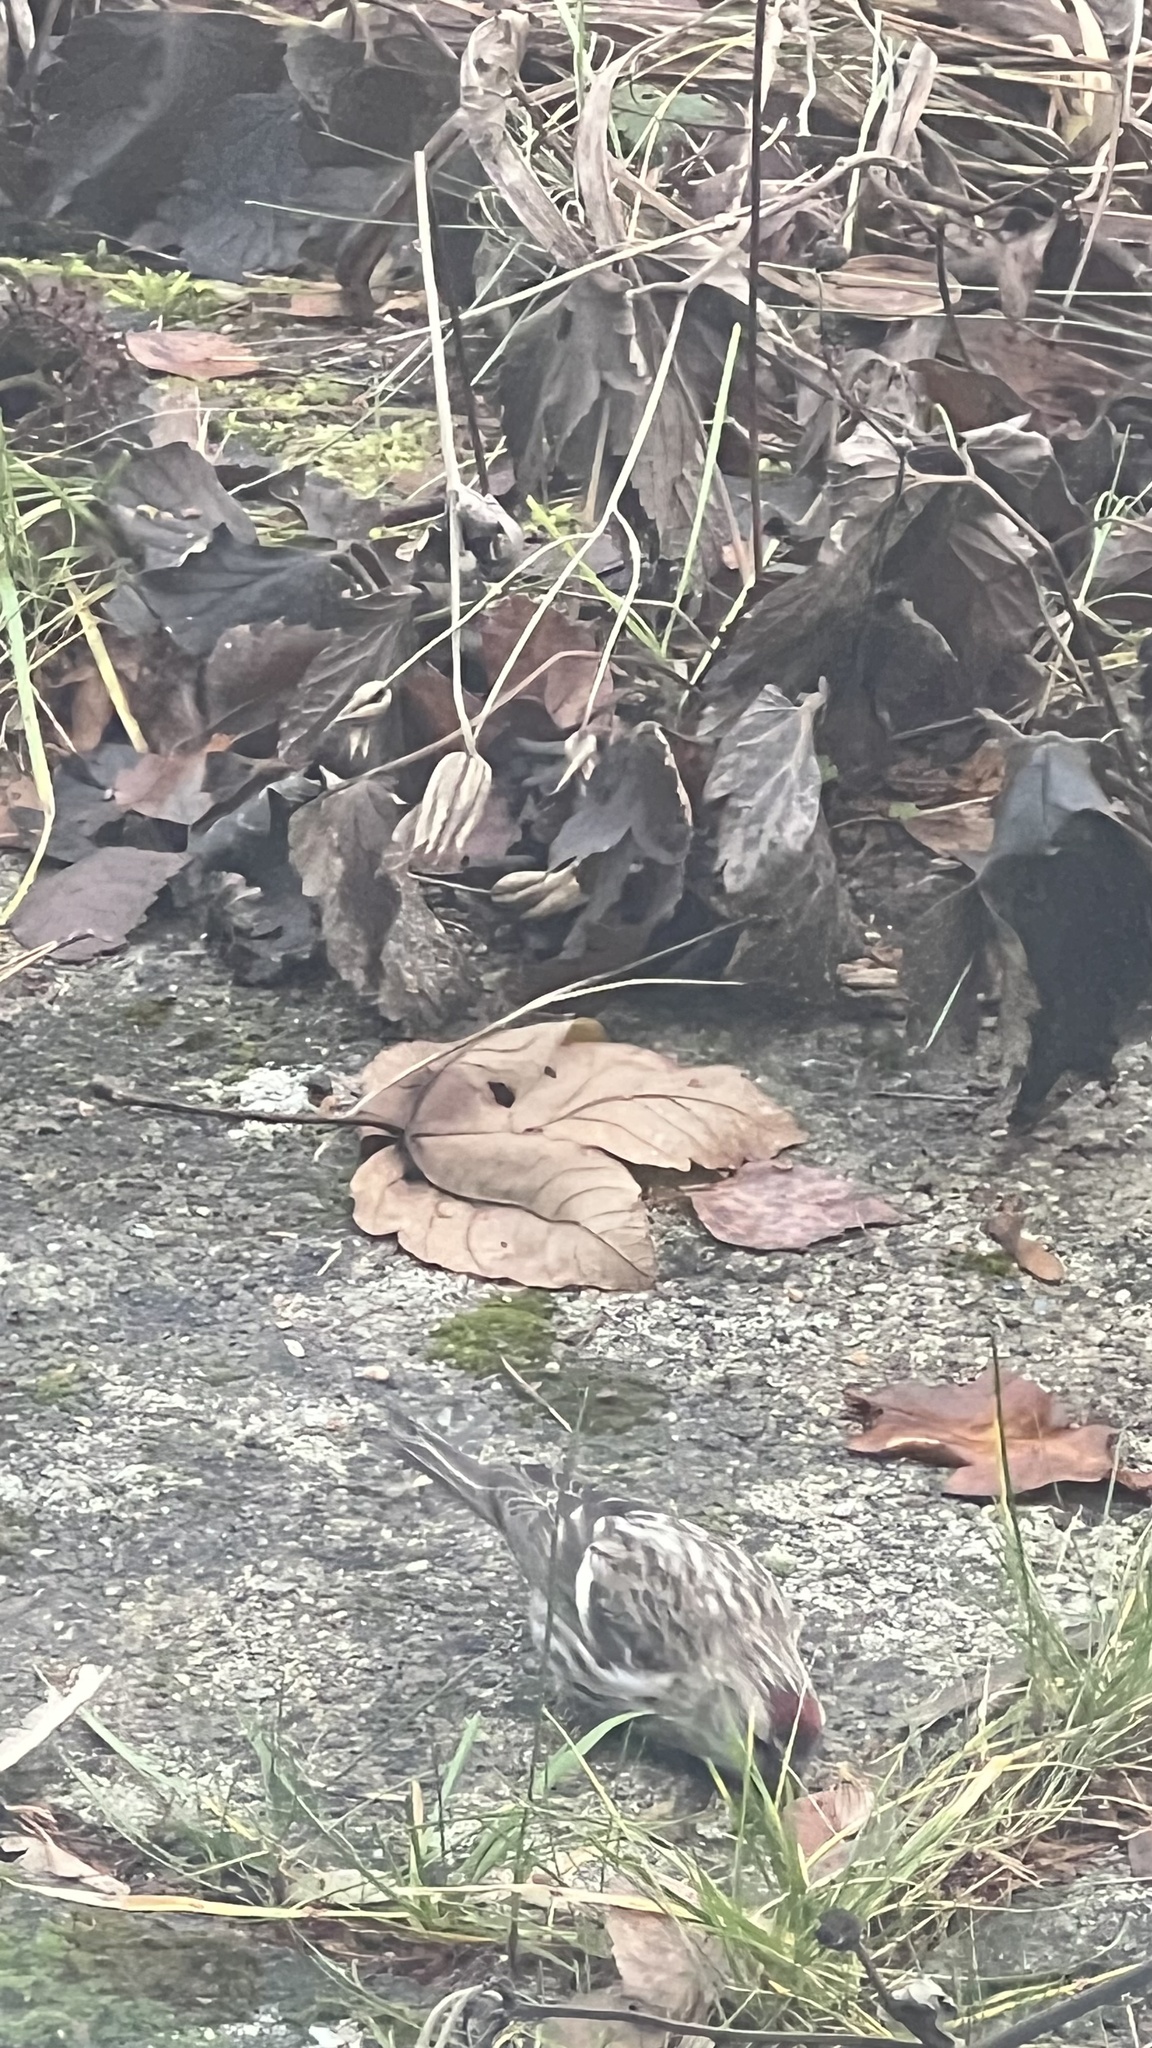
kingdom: Animalia
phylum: Chordata
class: Aves
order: Passeriformes
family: Fringillidae
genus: Acanthis
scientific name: Acanthis flammea
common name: Common redpoll
